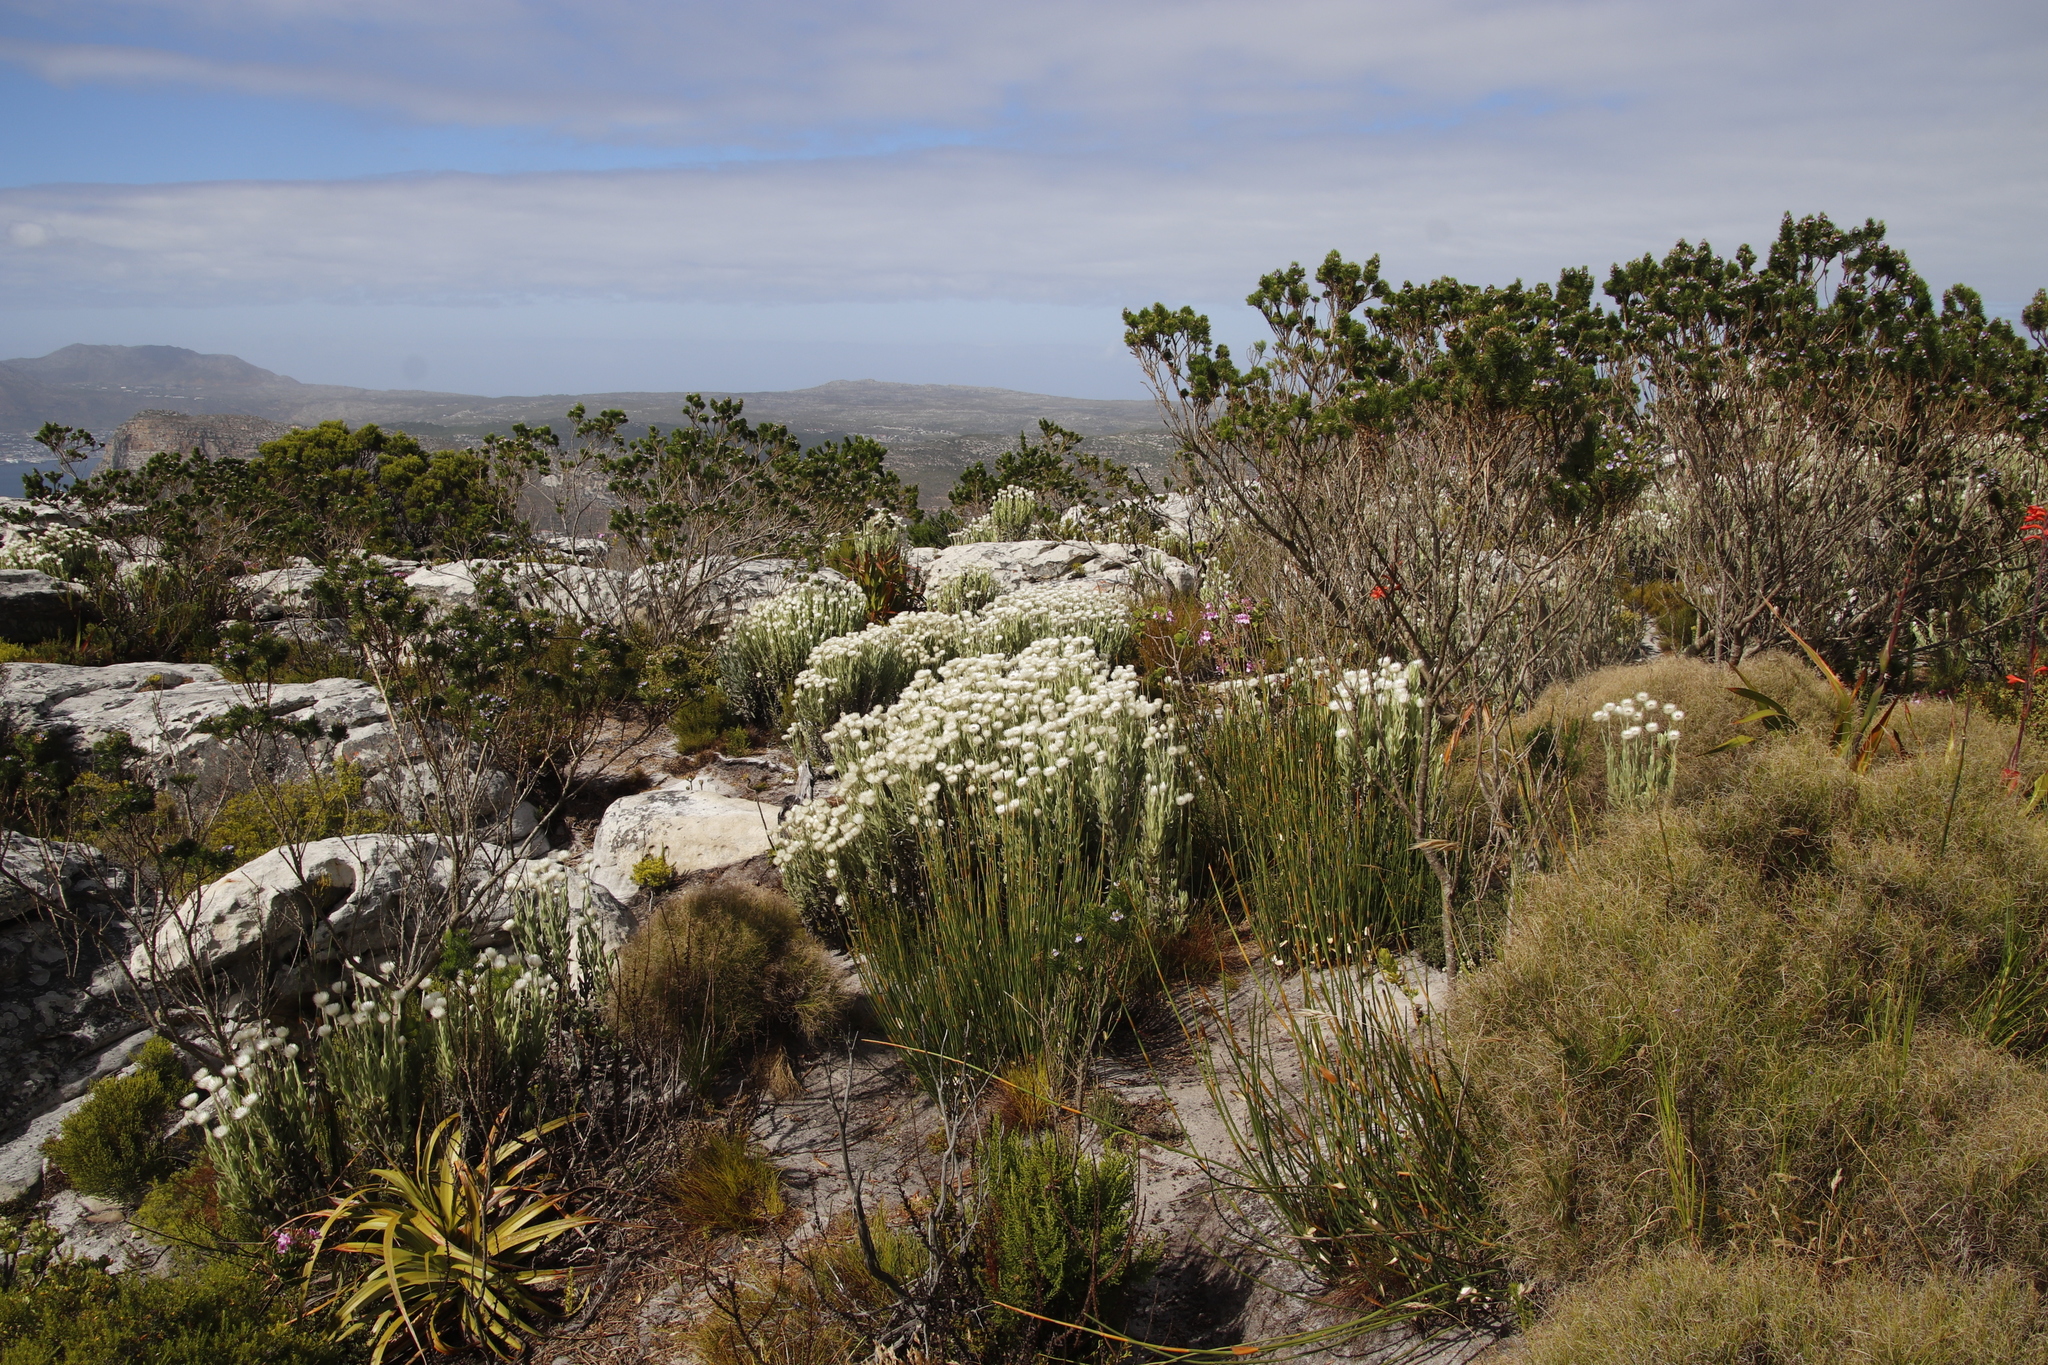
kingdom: Plantae
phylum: Tracheophyta
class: Magnoliopsida
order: Asterales
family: Asteraceae
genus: Syncarpha
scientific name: Syncarpha vestita
